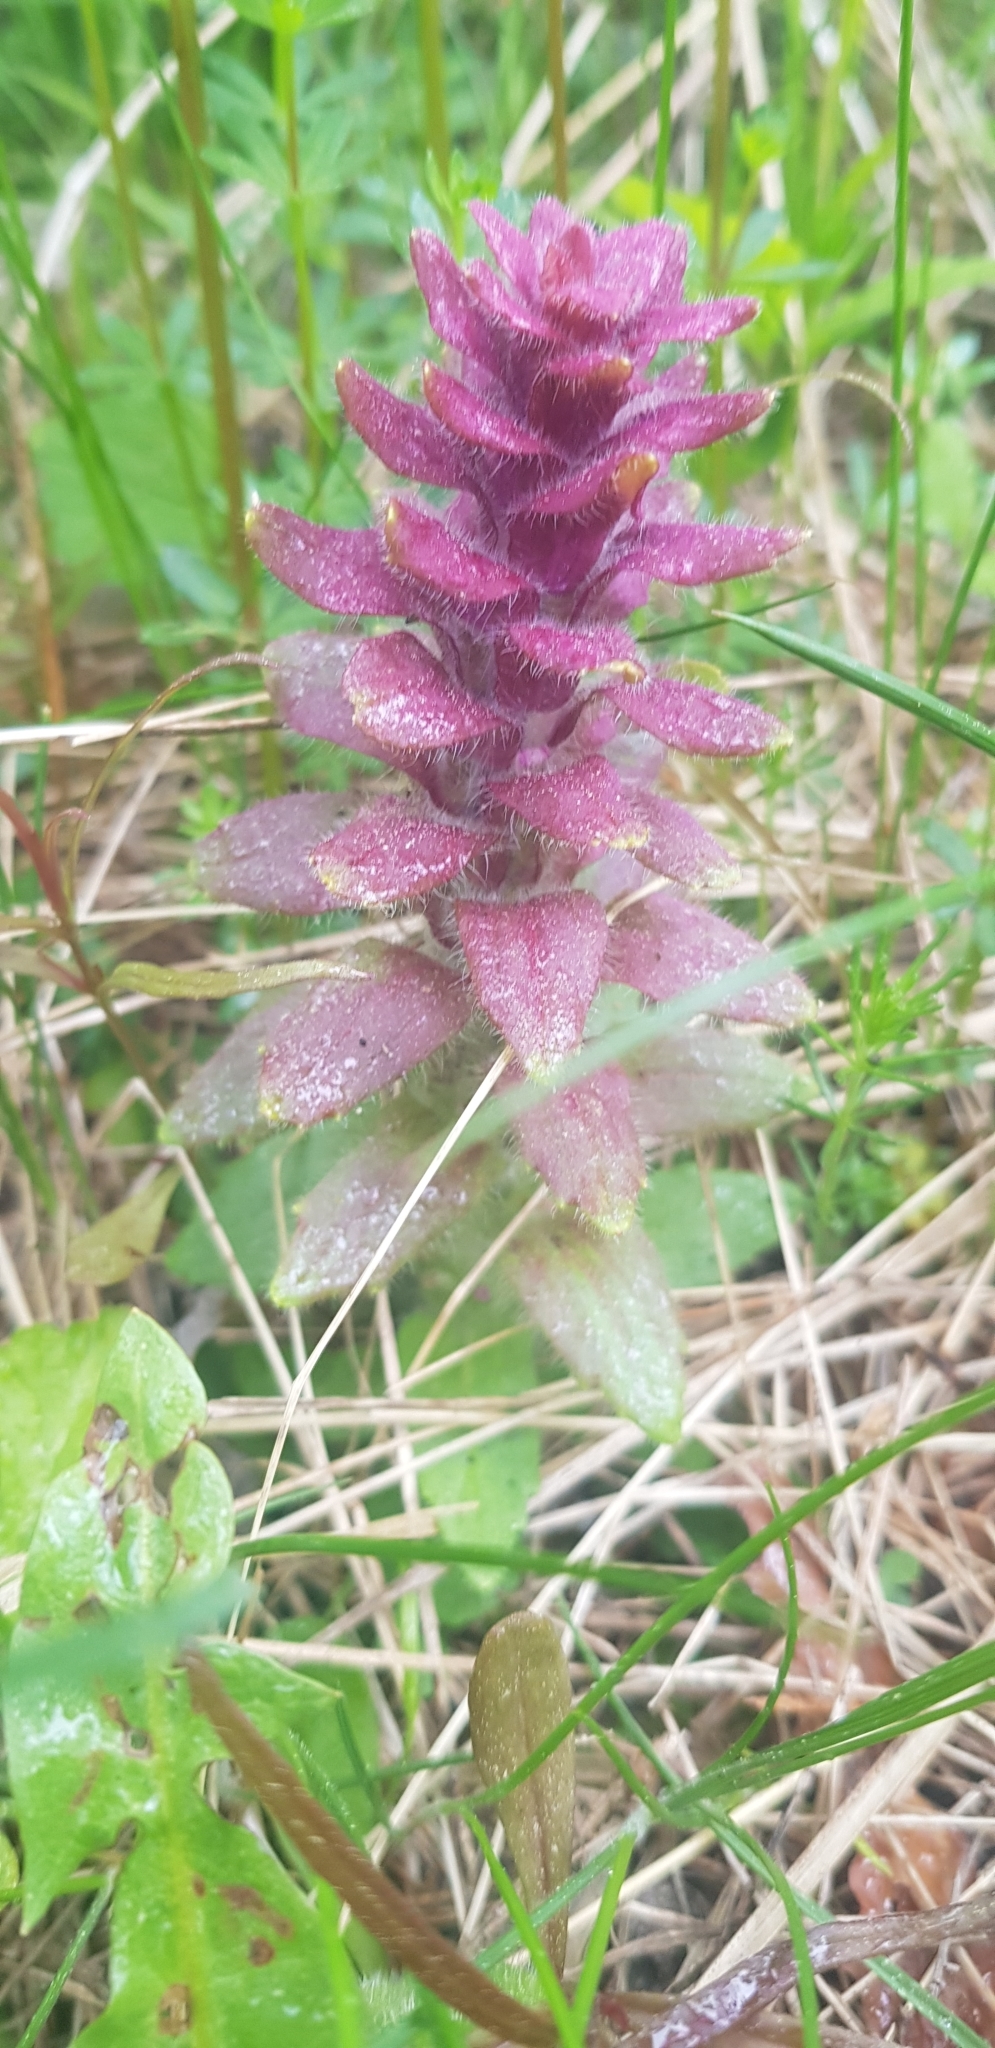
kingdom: Plantae
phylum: Tracheophyta
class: Magnoliopsida
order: Lamiales
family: Lamiaceae
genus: Ajuga
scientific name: Ajuga pyramidalis
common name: Pyramid bugle
